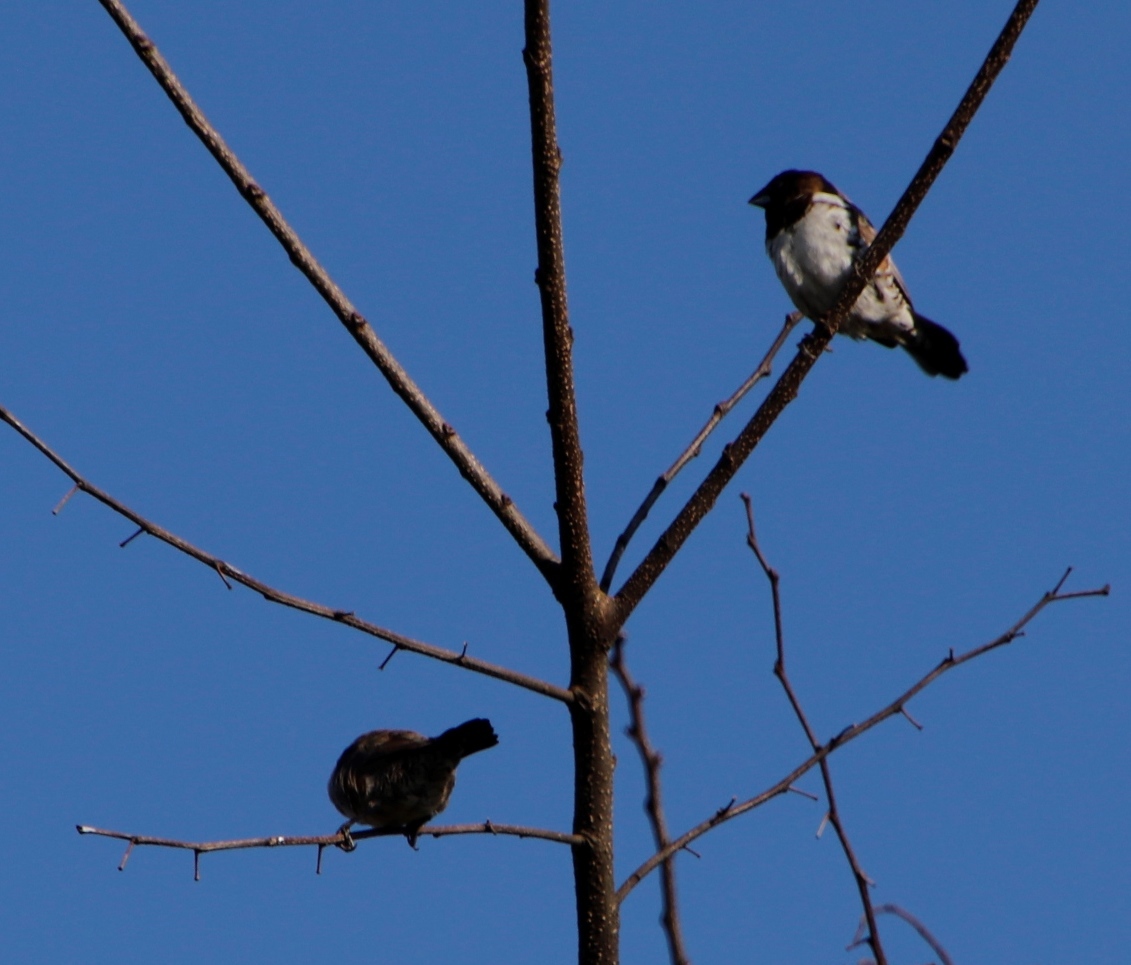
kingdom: Animalia
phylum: Chordata
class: Aves
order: Passeriformes
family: Estrildidae
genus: Lonchura
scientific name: Lonchura cucullata
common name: Bronze mannikin
